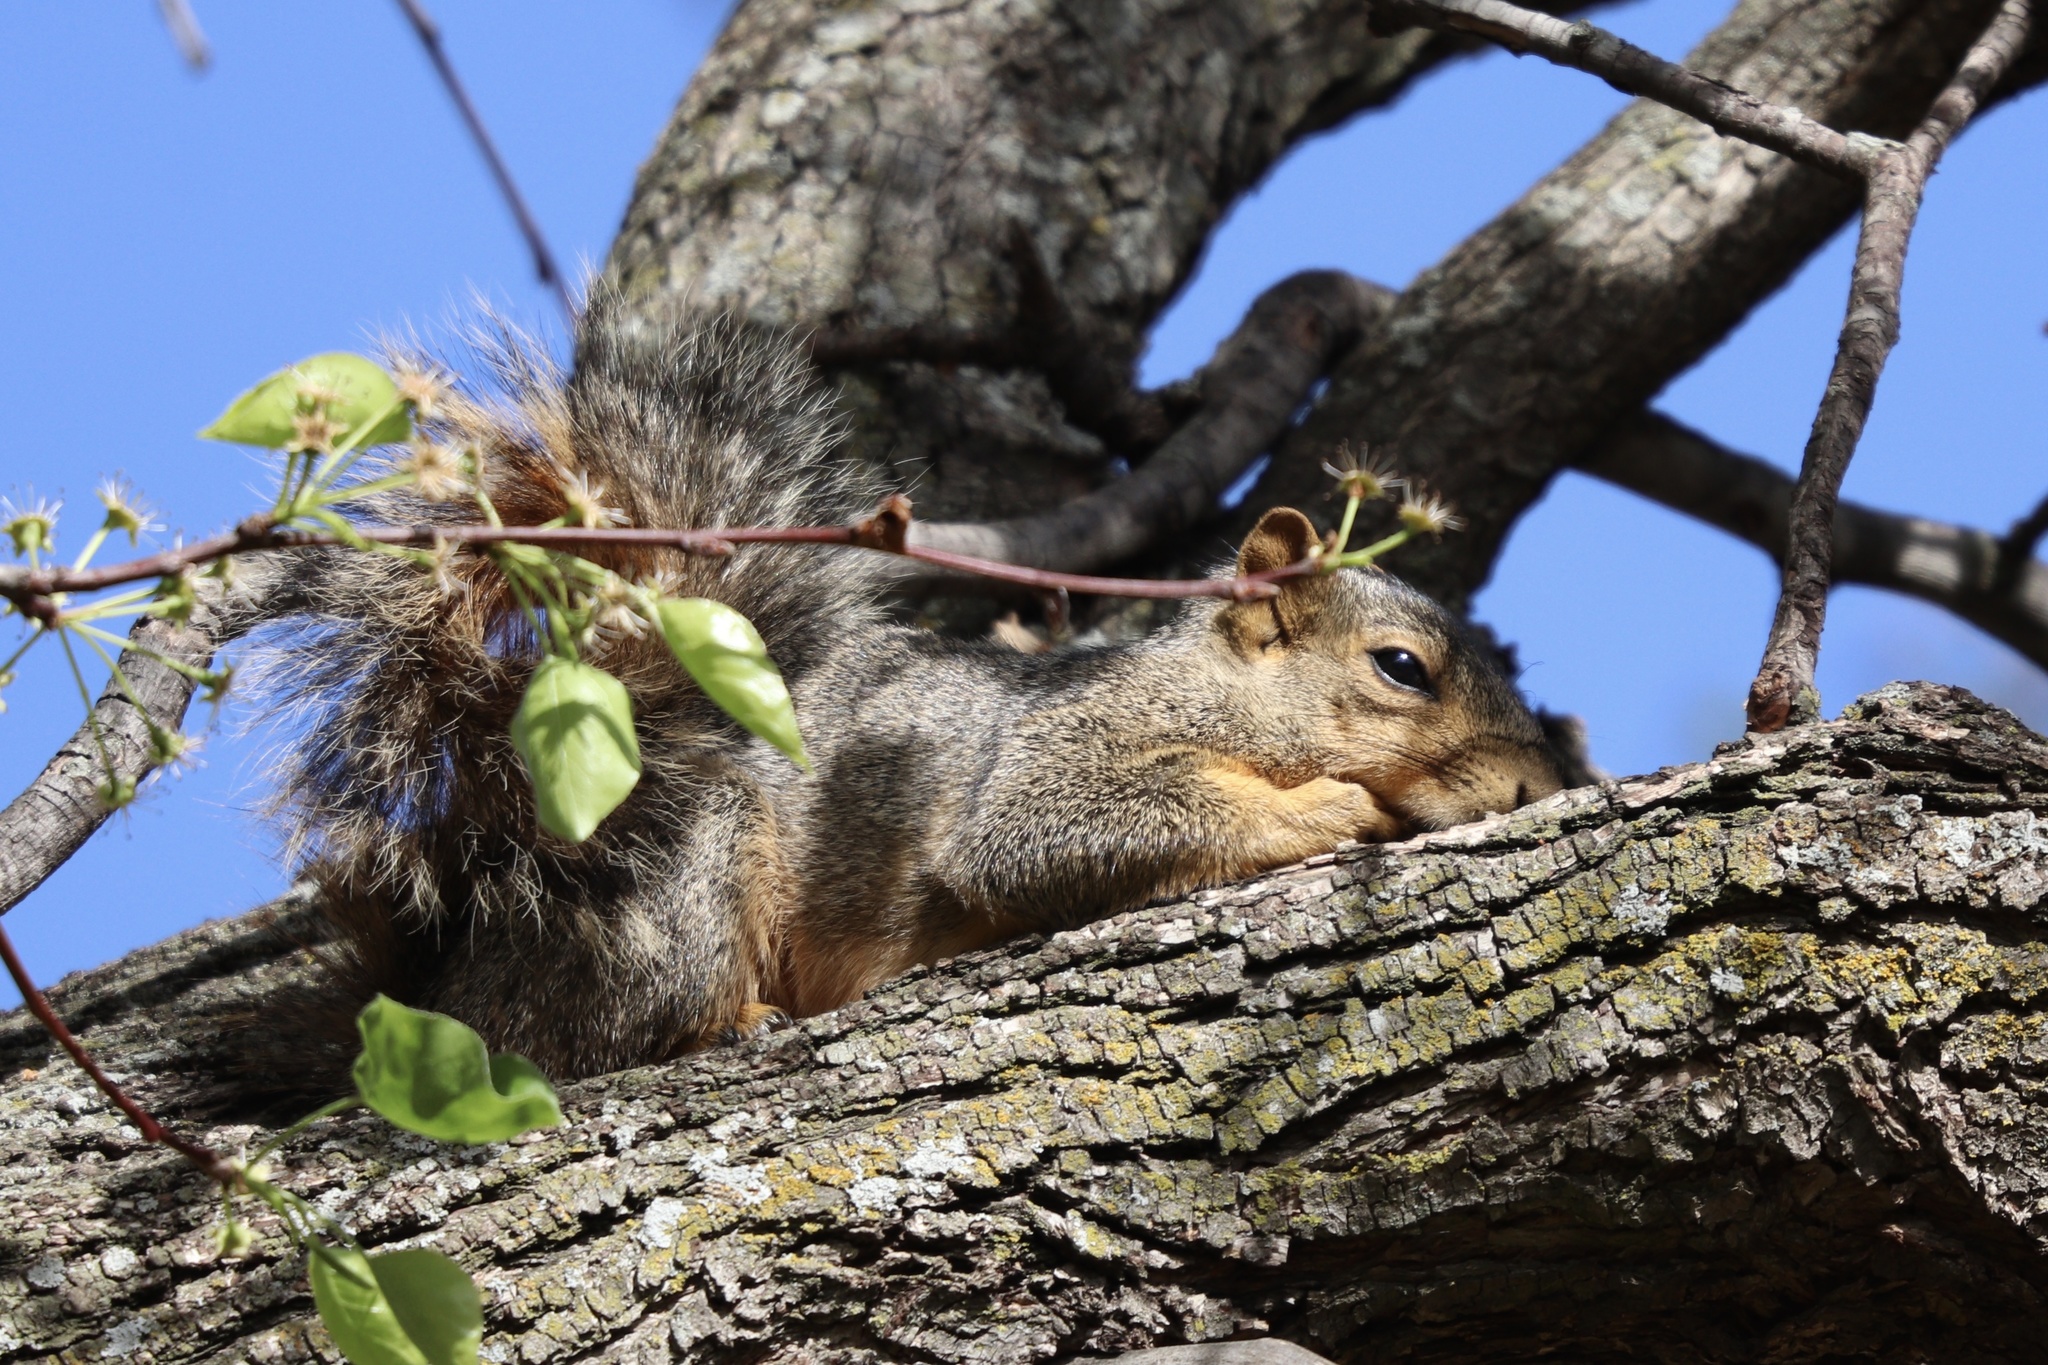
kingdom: Animalia
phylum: Chordata
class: Mammalia
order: Rodentia
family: Sciuridae
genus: Sciurus
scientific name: Sciurus niger
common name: Fox squirrel
